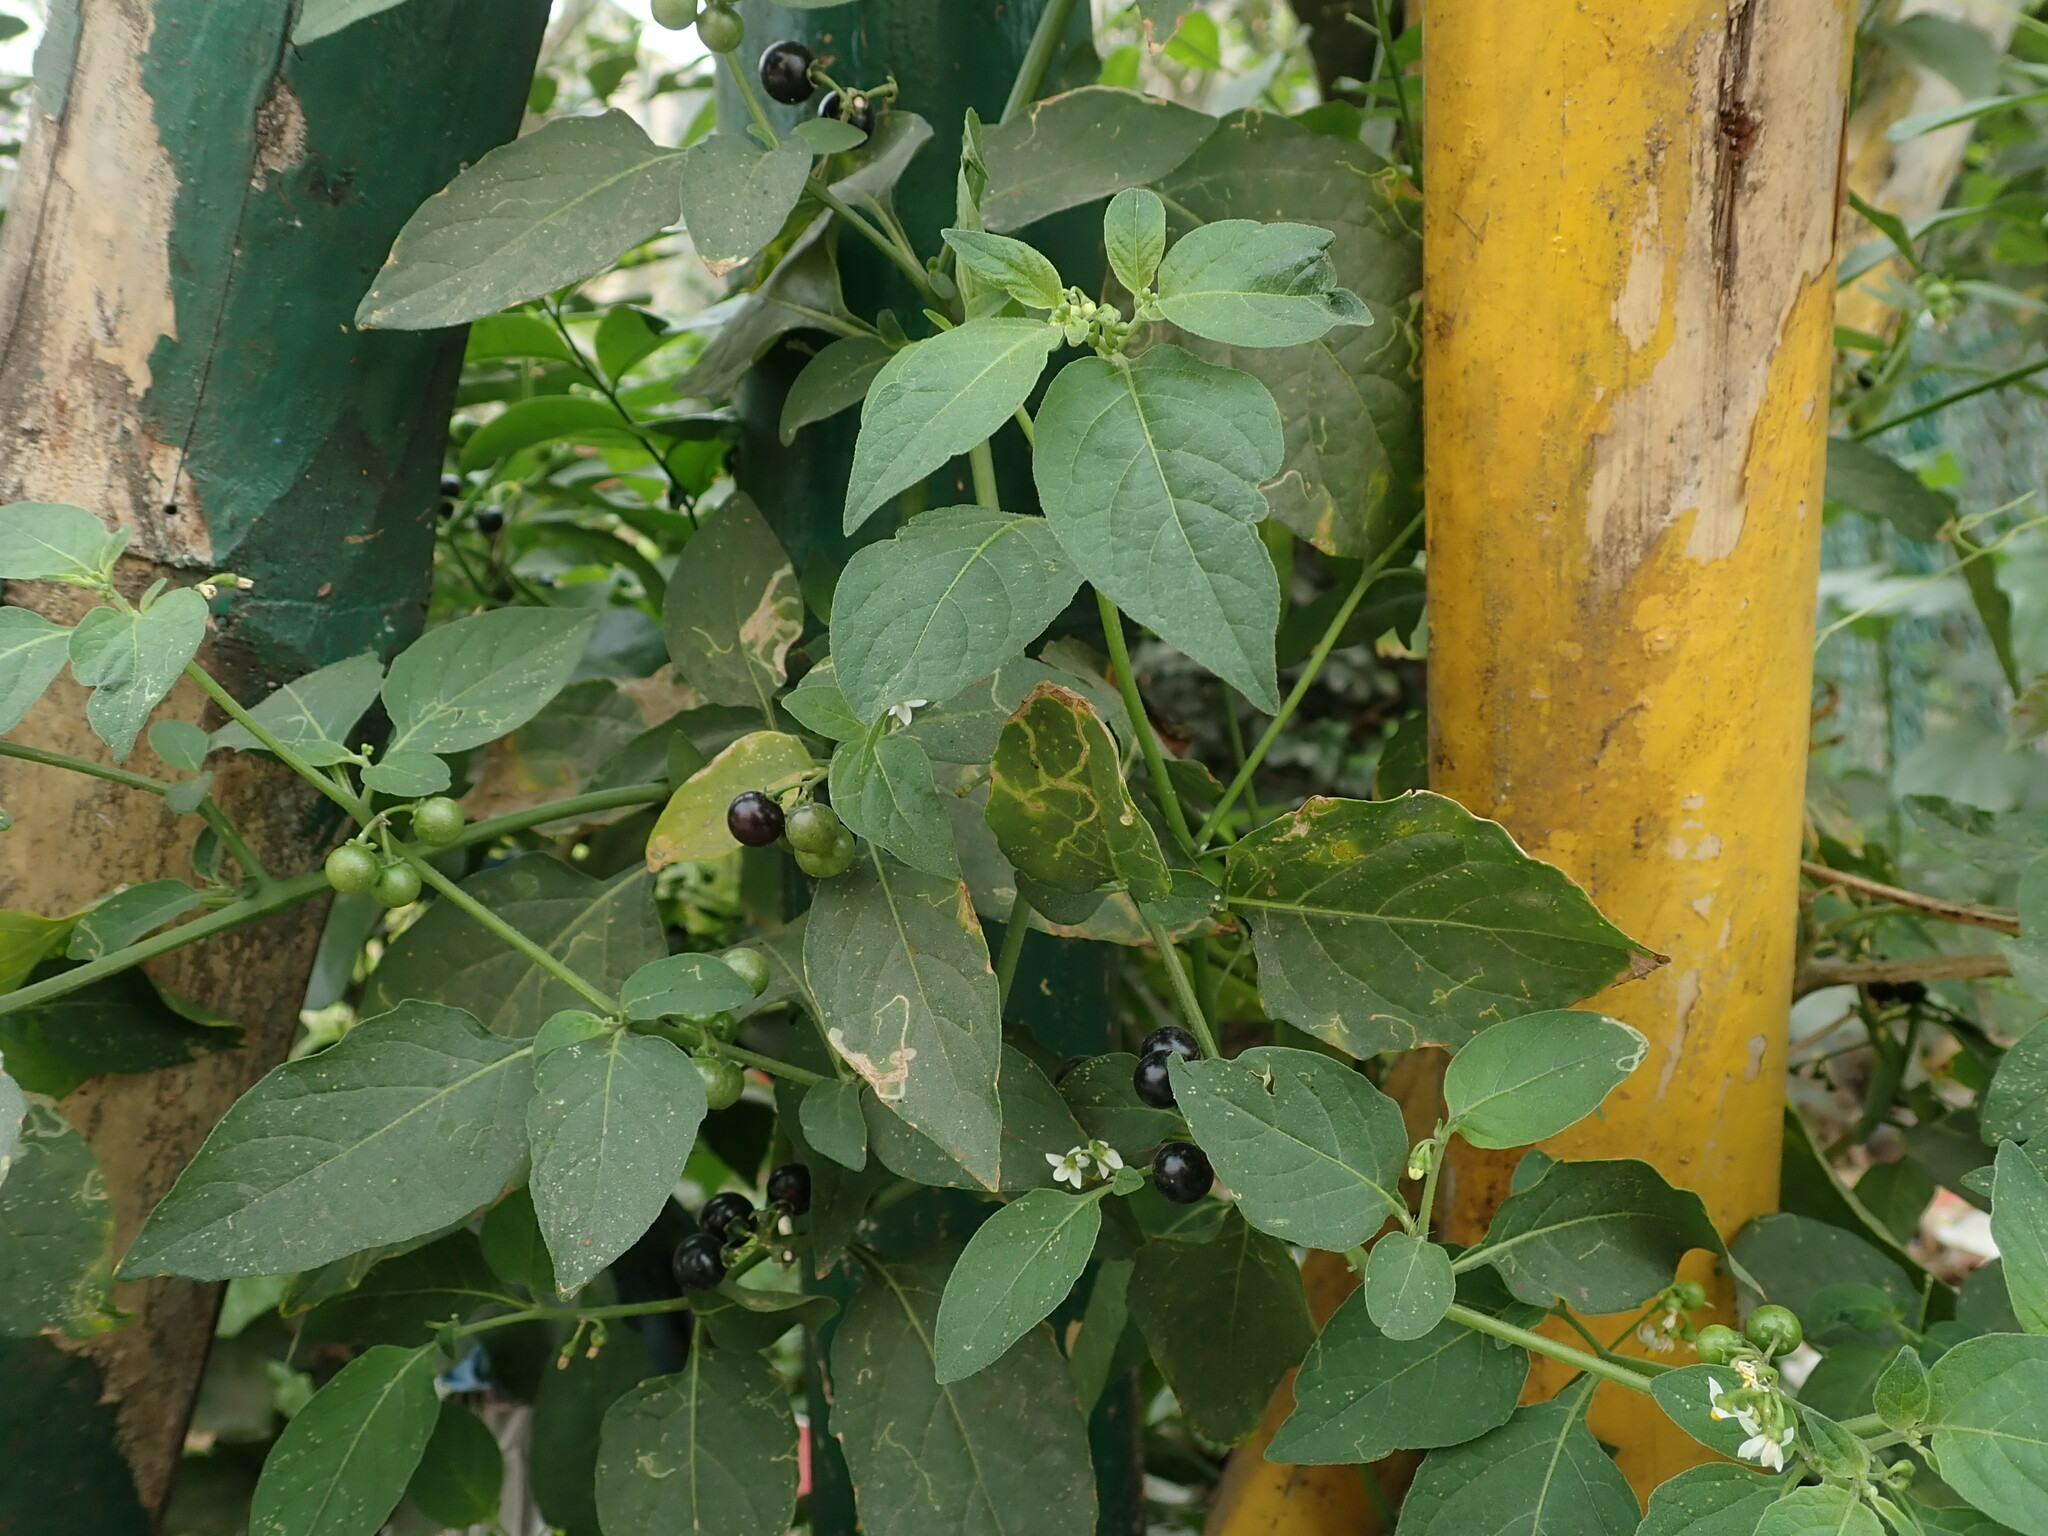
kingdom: Plantae
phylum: Tracheophyta
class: Magnoliopsida
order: Solanales
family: Solanaceae
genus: Solanum
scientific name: Solanum americanum
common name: American black nightshade
